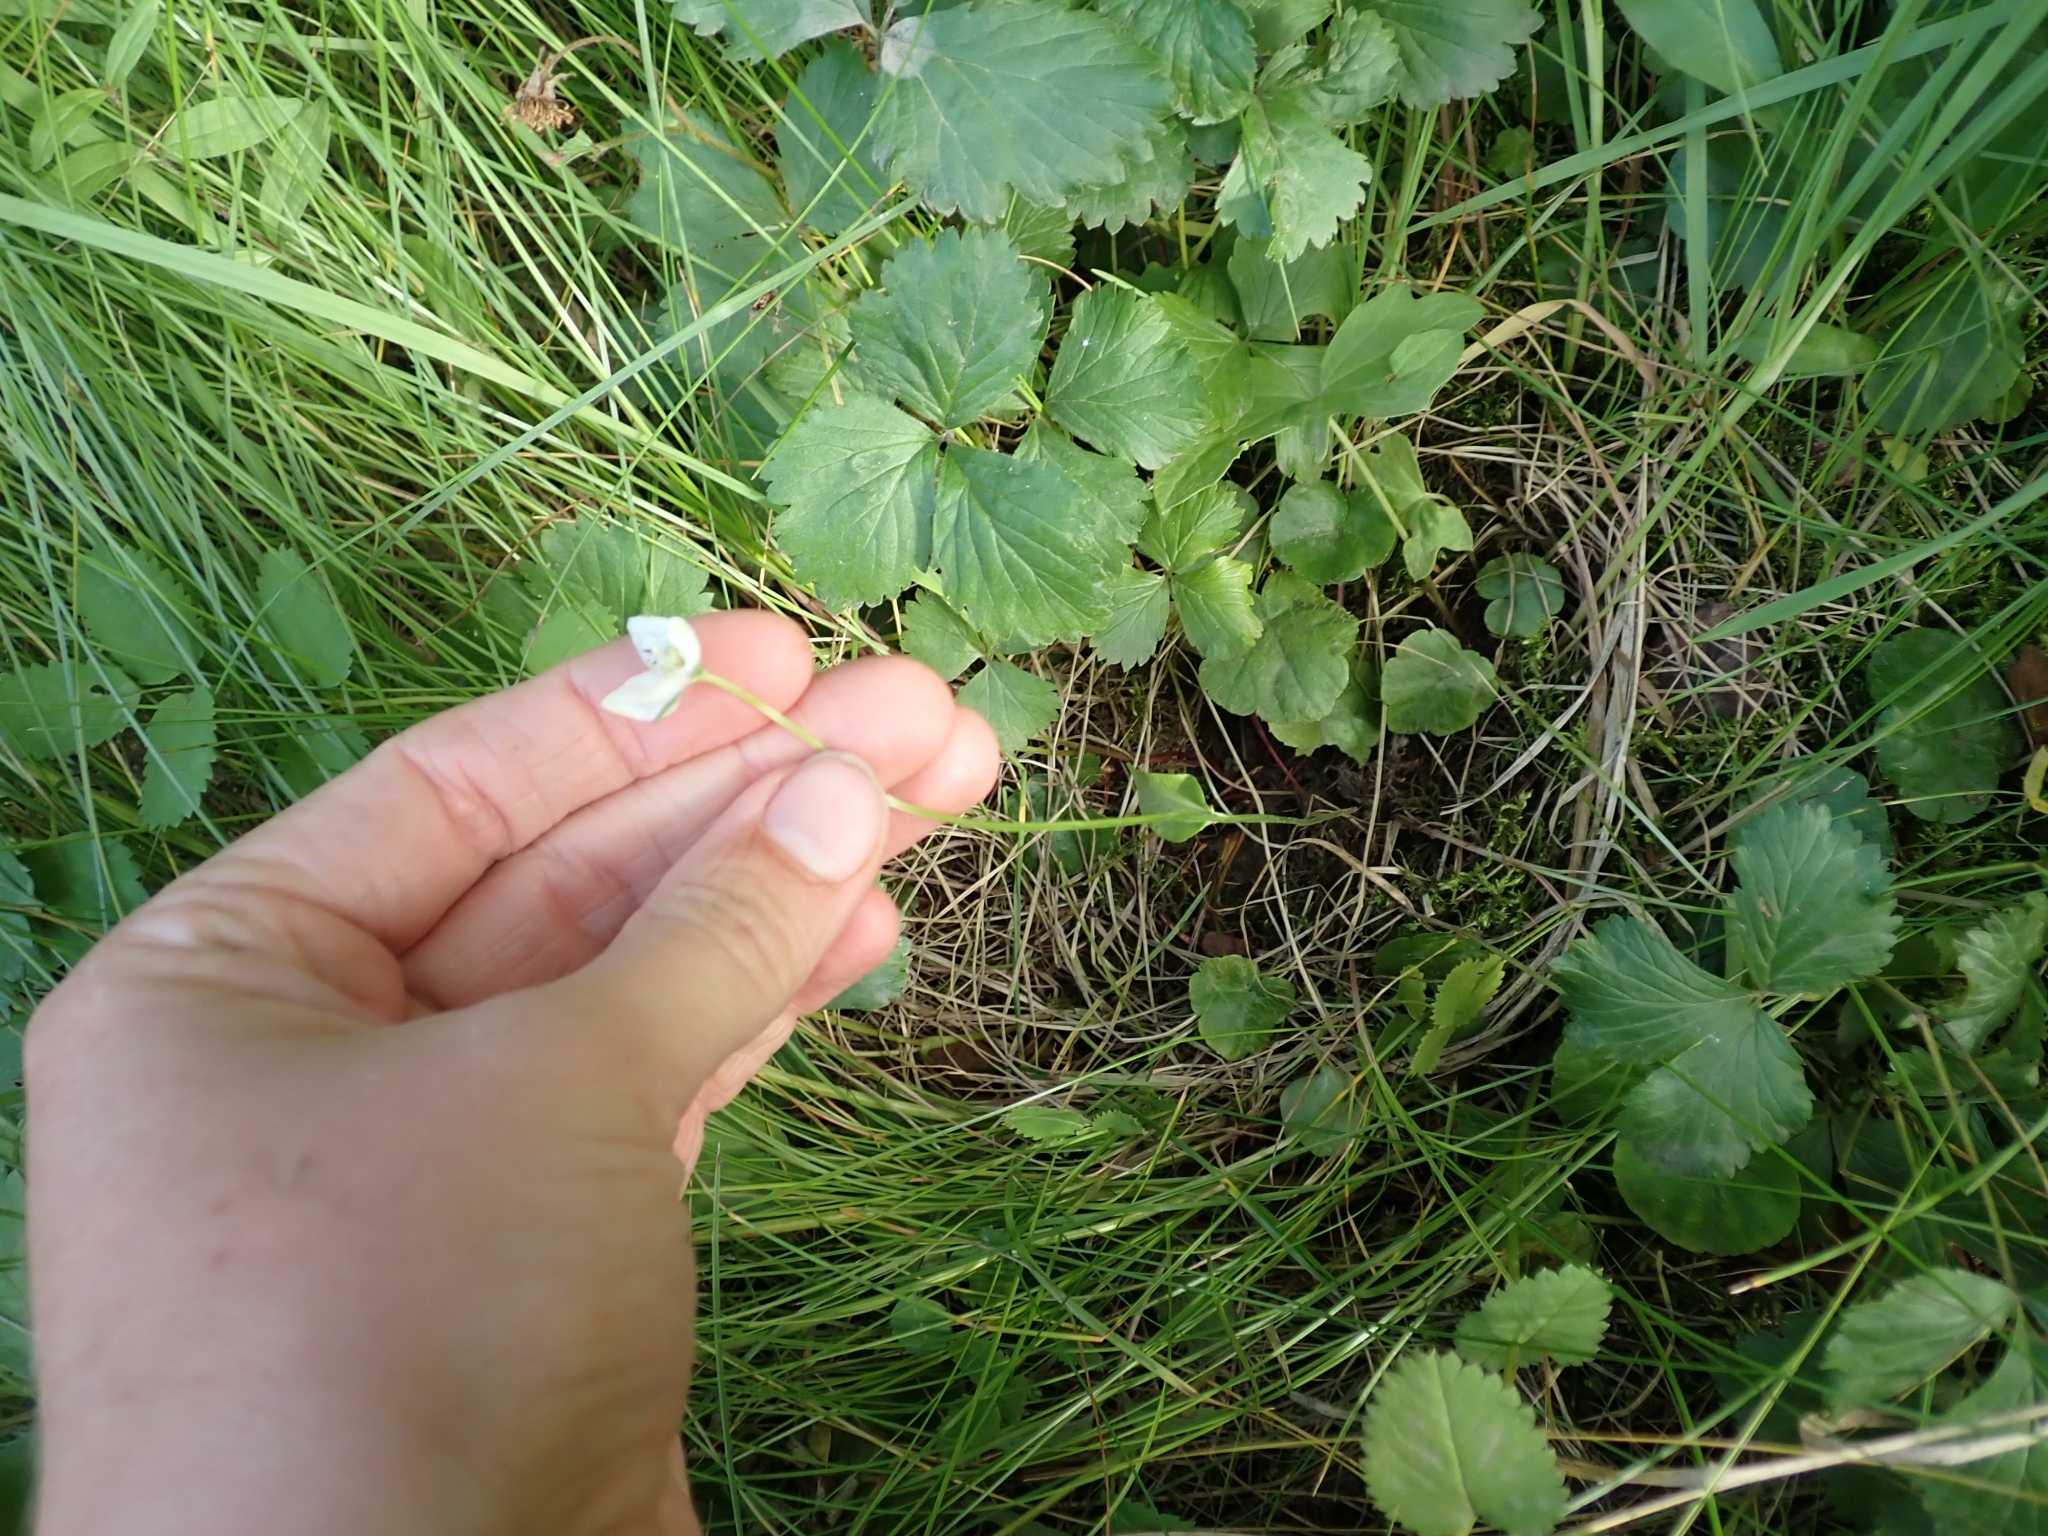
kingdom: Plantae
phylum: Tracheophyta
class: Magnoliopsida
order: Celastrales
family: Parnassiaceae
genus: Parnassia
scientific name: Parnassia palustris
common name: Grass-of-parnassus
